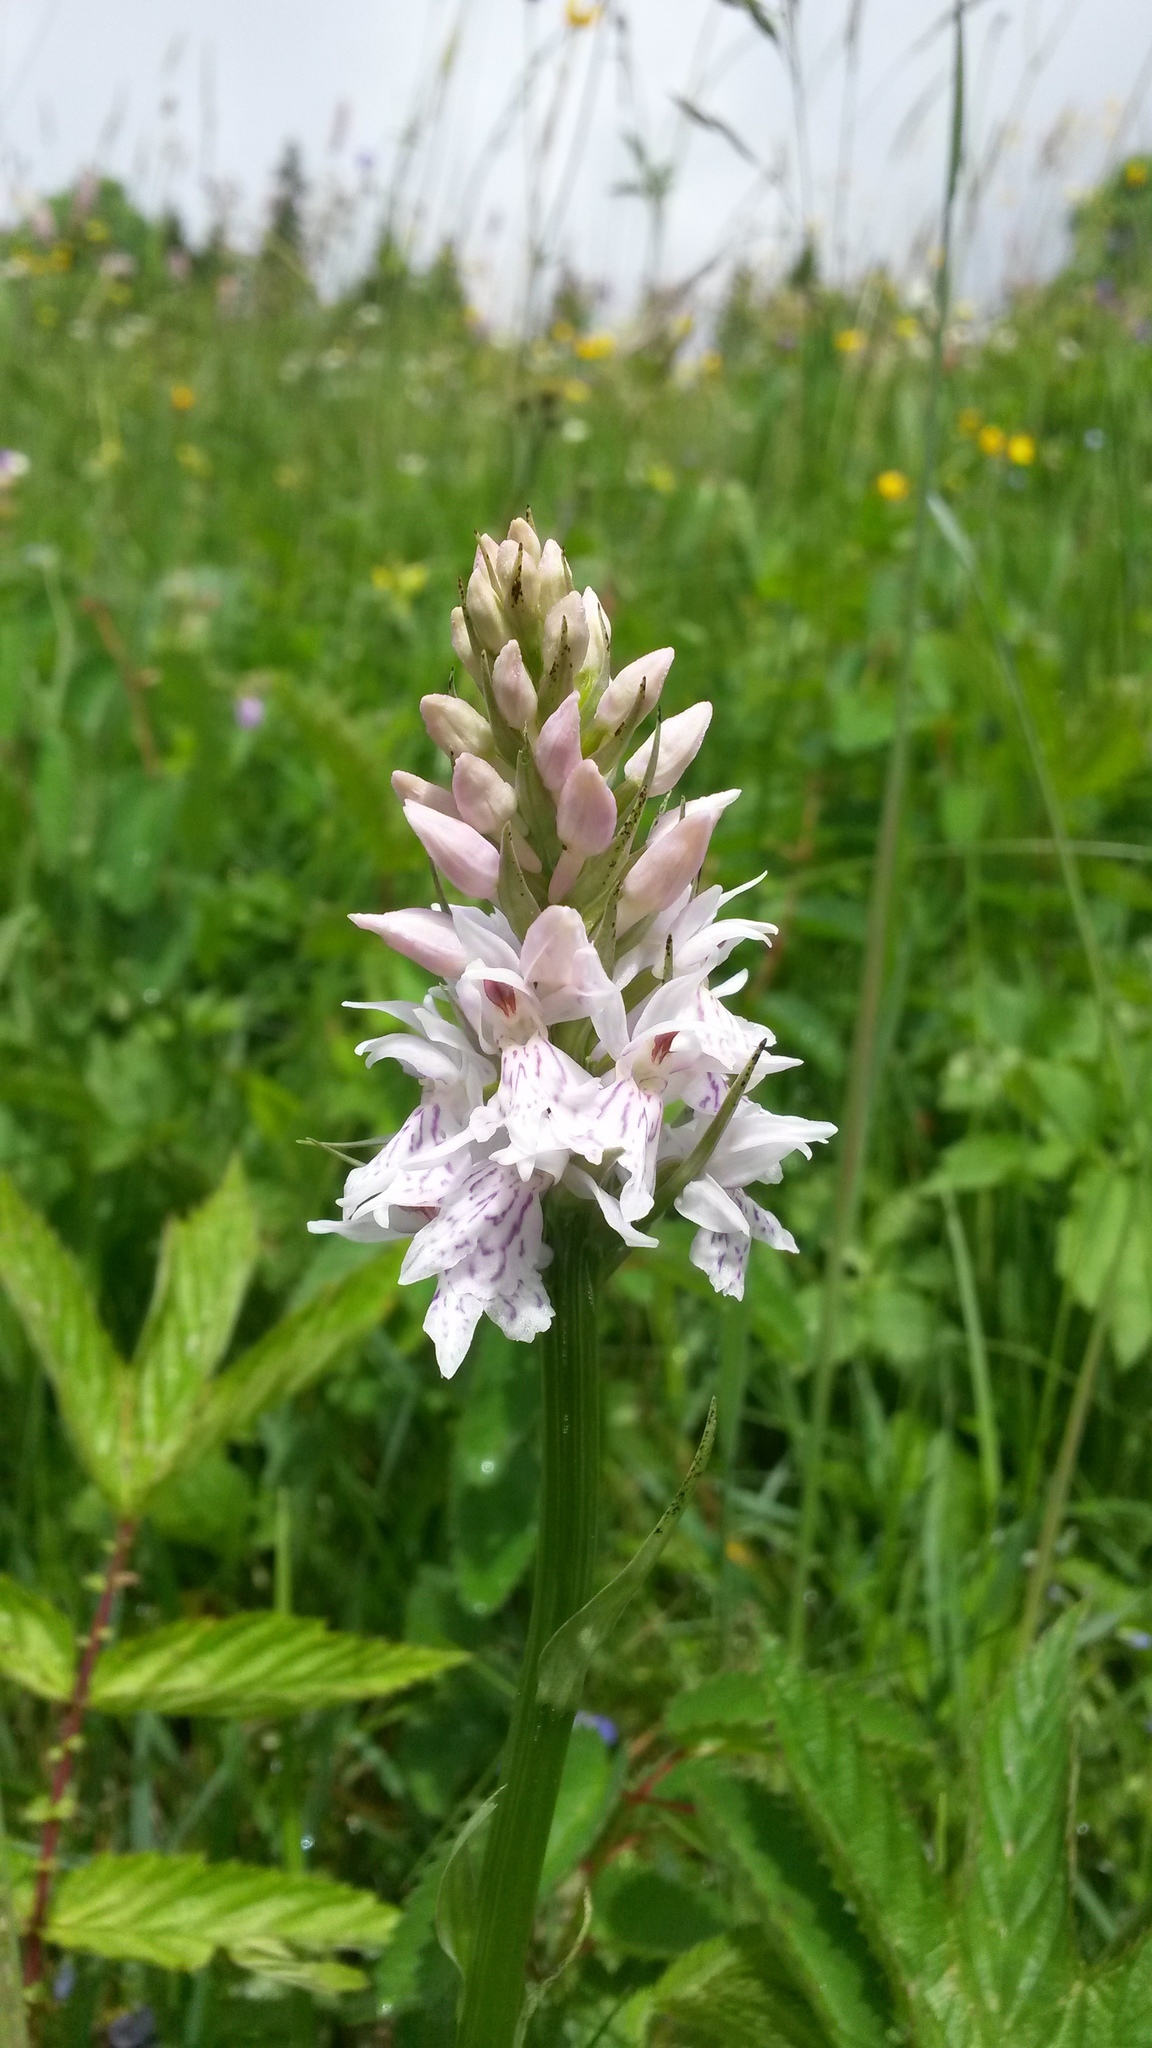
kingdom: Plantae
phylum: Tracheophyta
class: Liliopsida
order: Asparagales
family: Orchidaceae
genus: Dactylorhiza
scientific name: Dactylorhiza maculata
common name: Heath spotted-orchid
